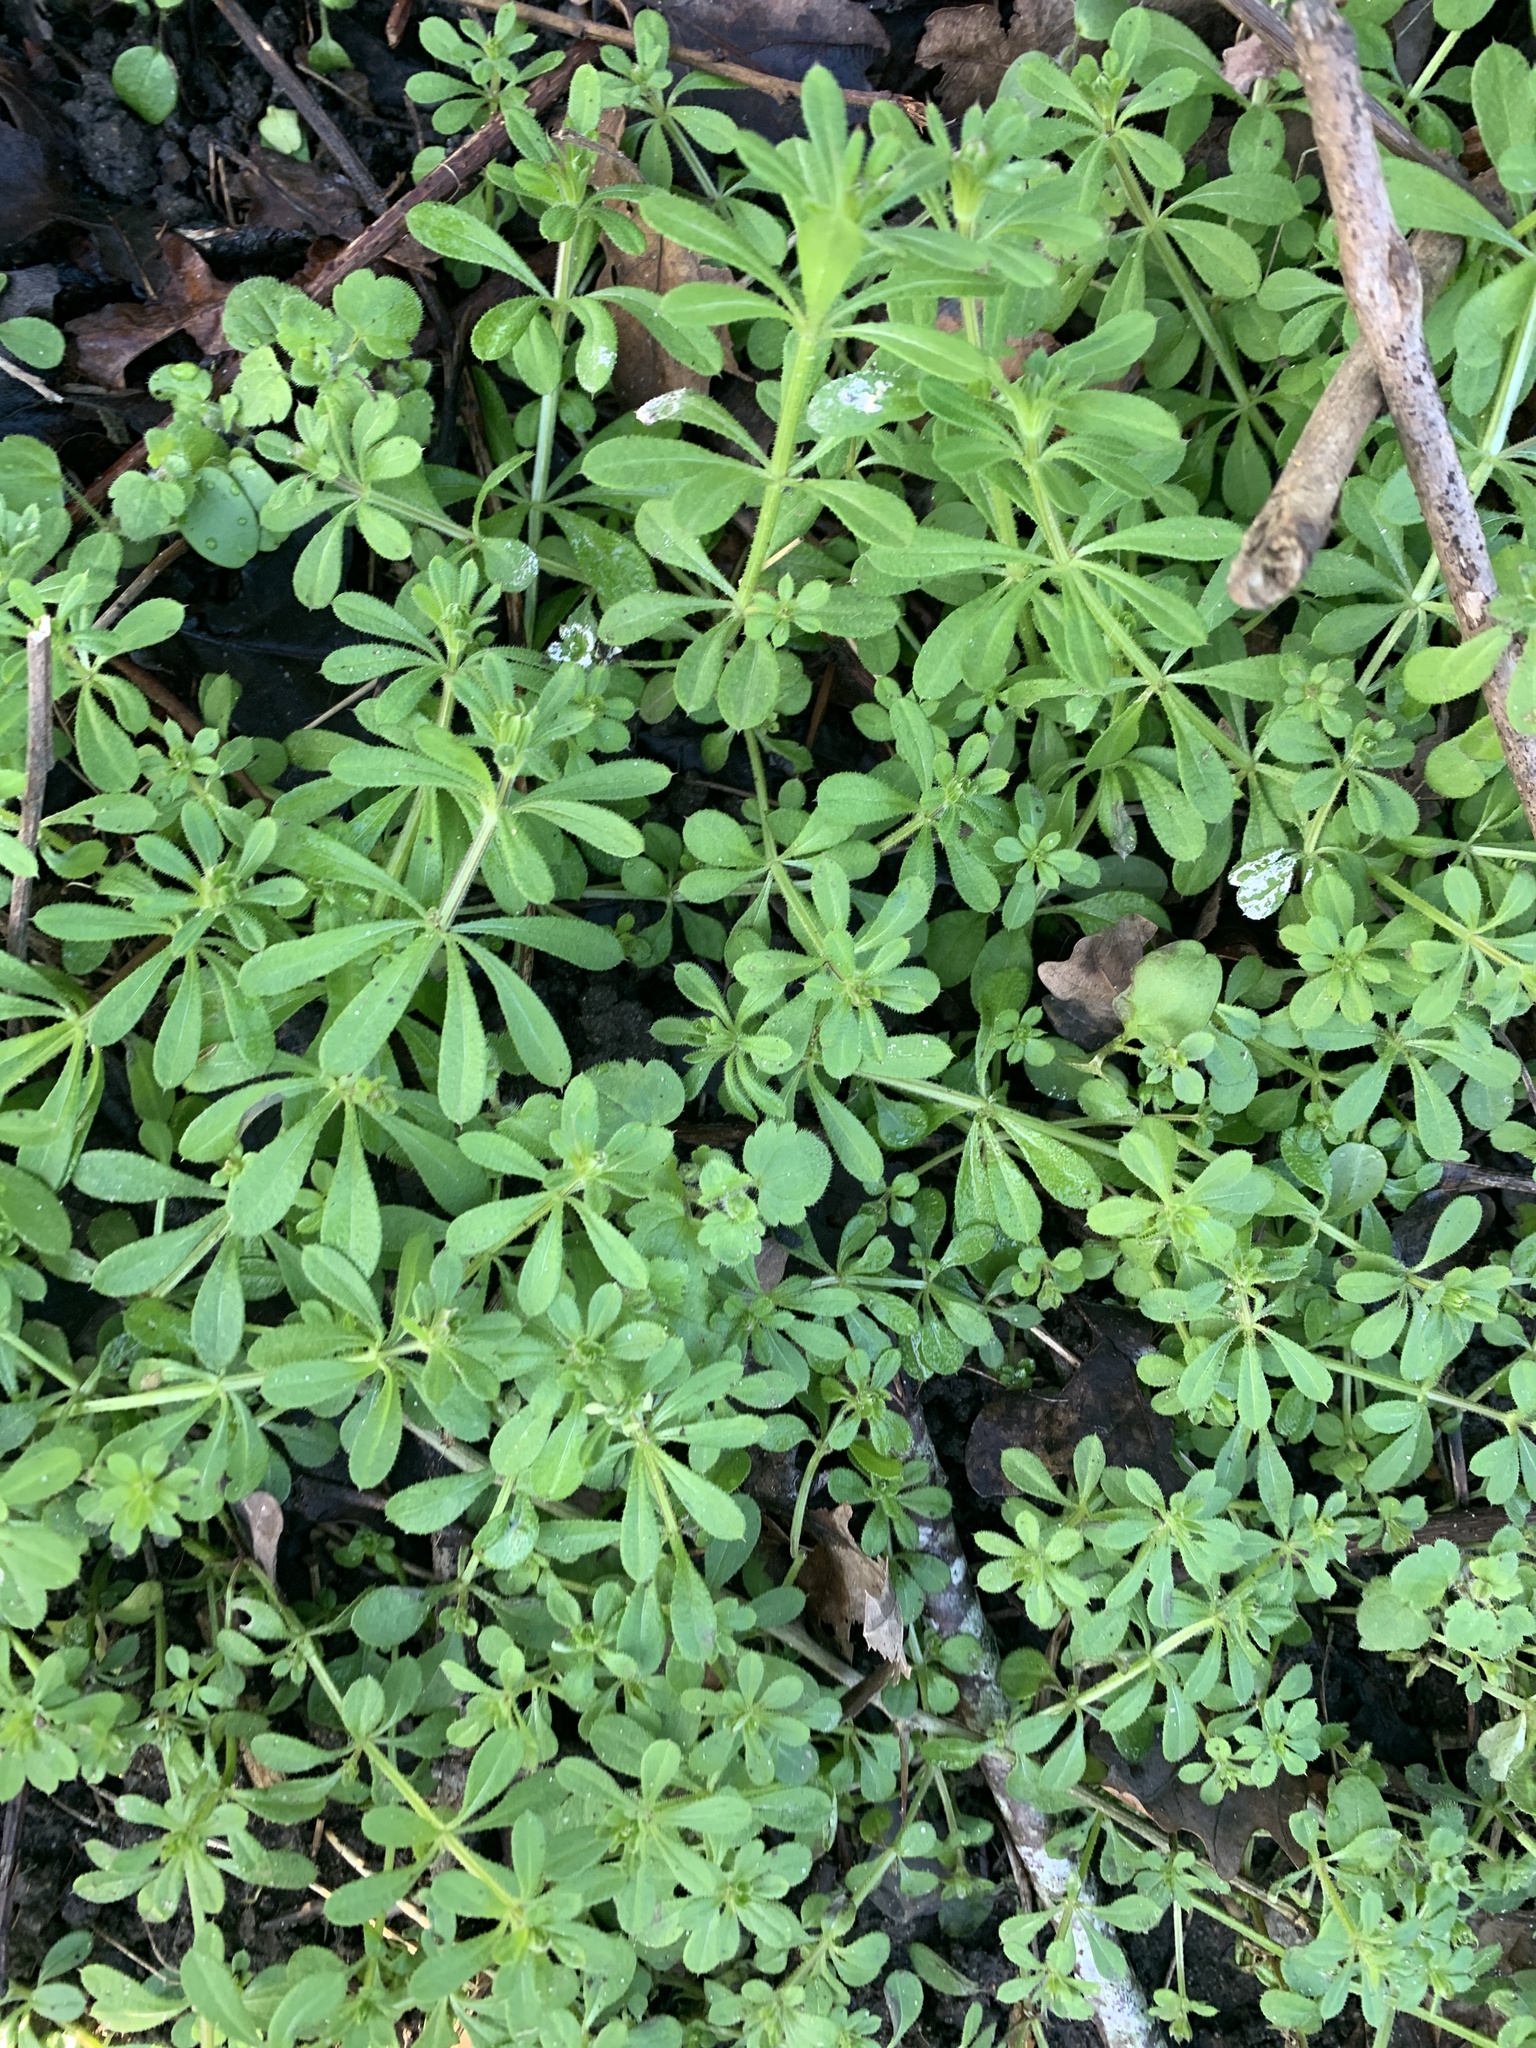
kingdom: Plantae
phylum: Tracheophyta
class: Magnoliopsida
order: Gentianales
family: Rubiaceae
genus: Galium
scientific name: Galium aparine
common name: Cleavers
